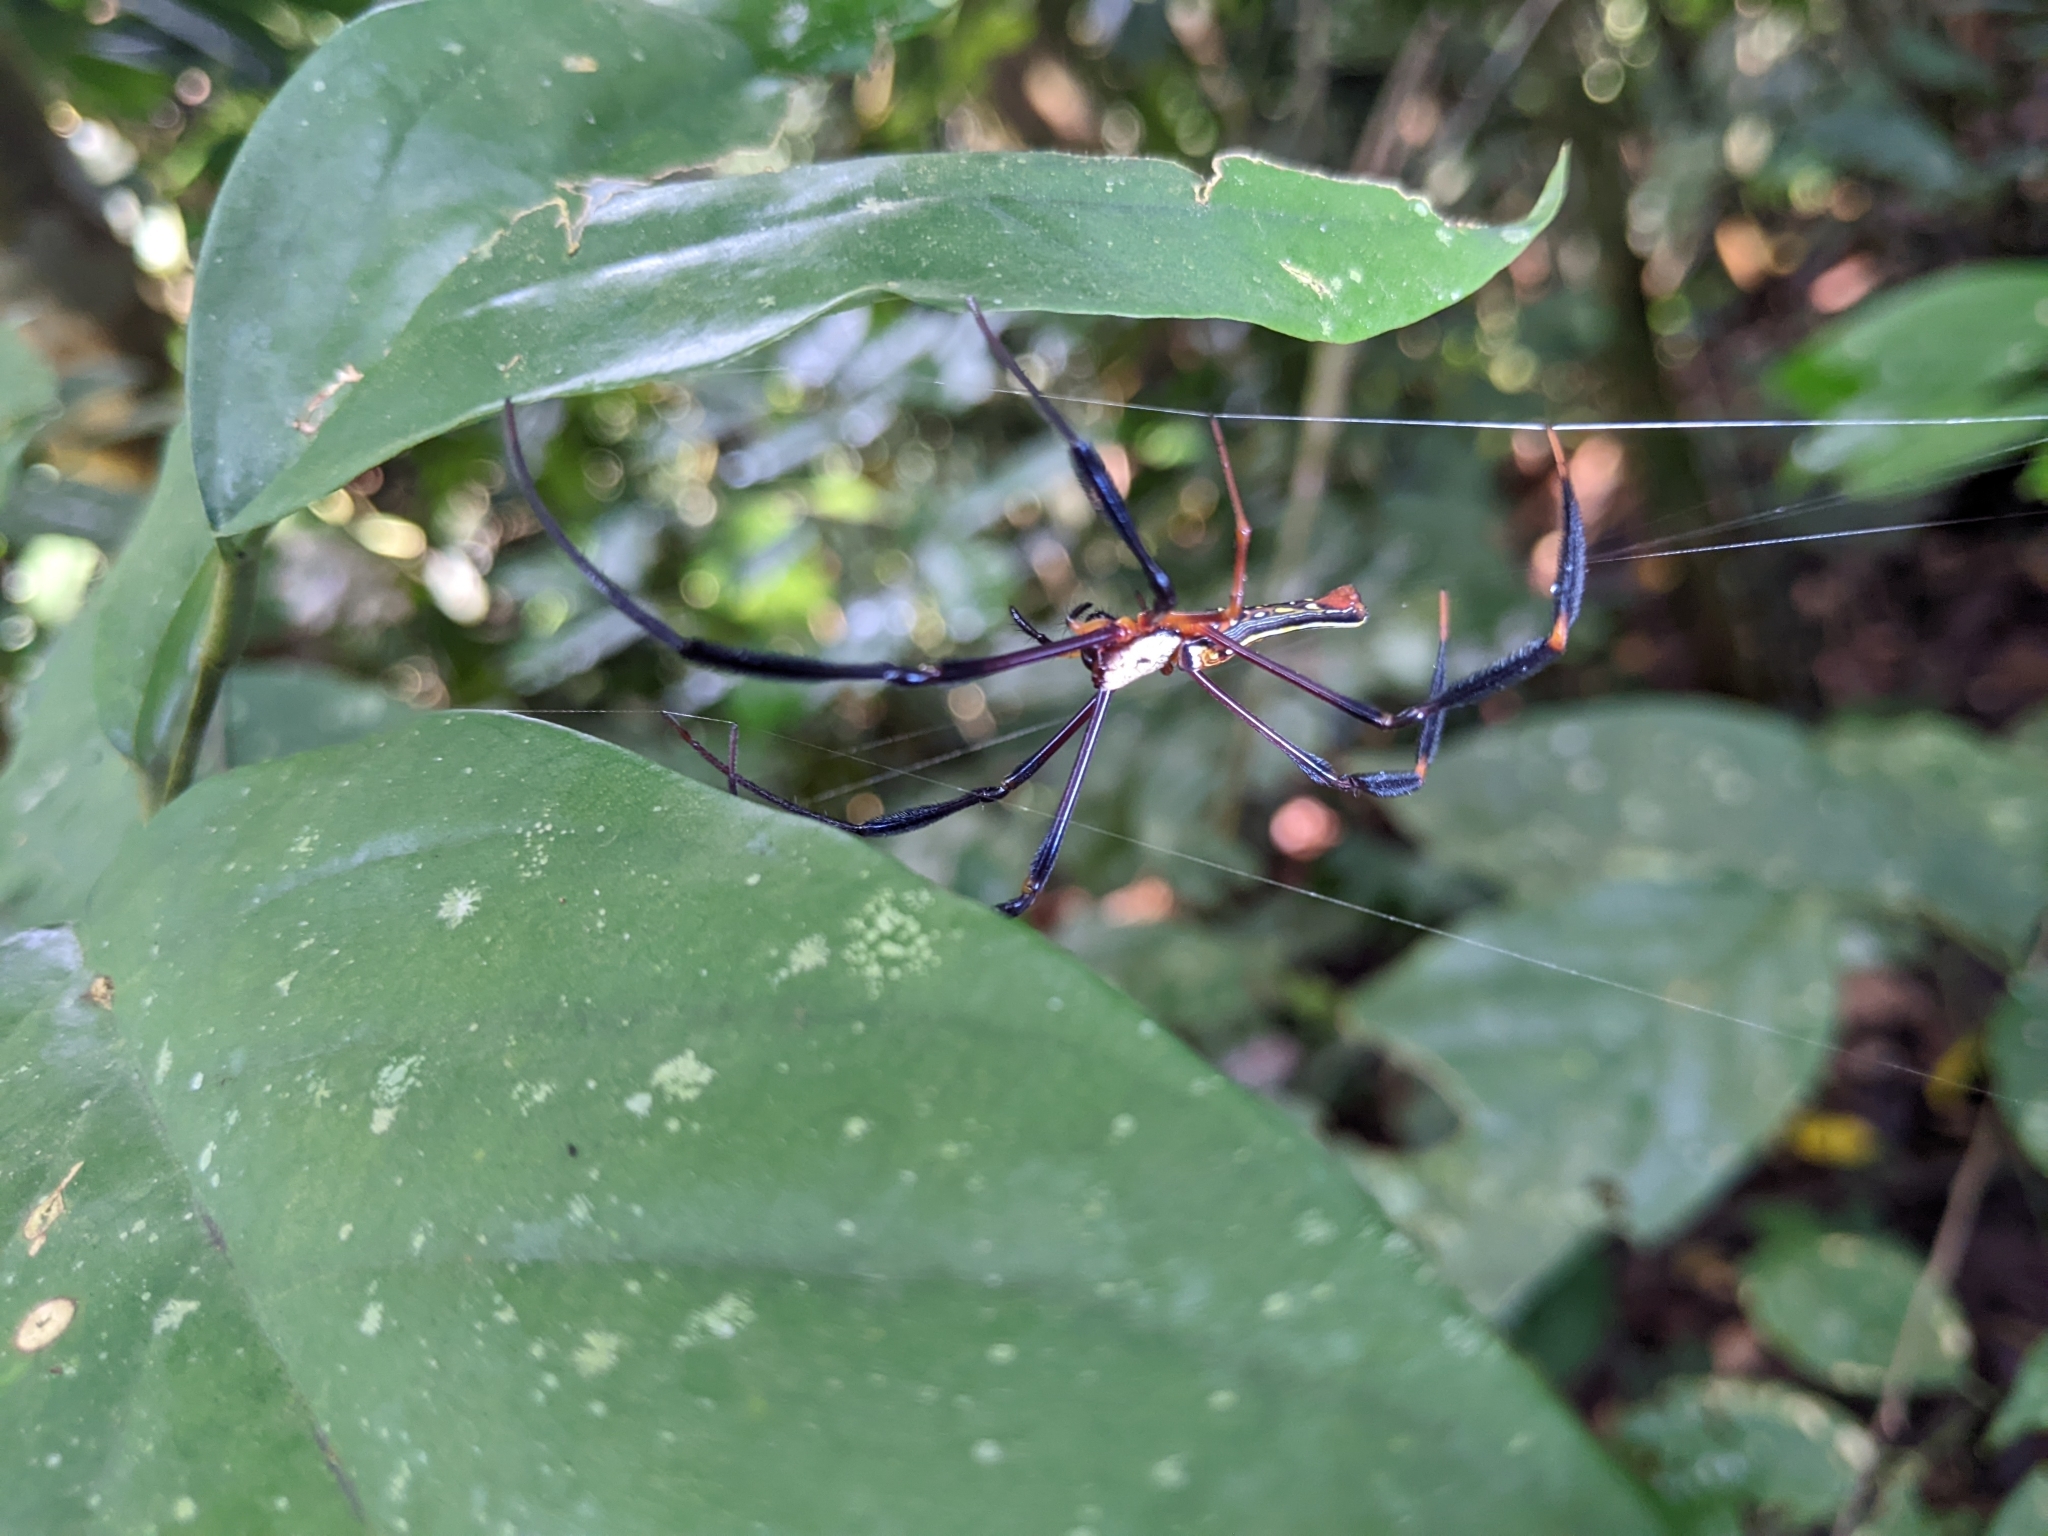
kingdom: Animalia
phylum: Arthropoda
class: Arachnida
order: Araneae
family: Araneidae
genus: Nephila
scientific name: Nephila pilipes
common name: Giant golden orb weaver
